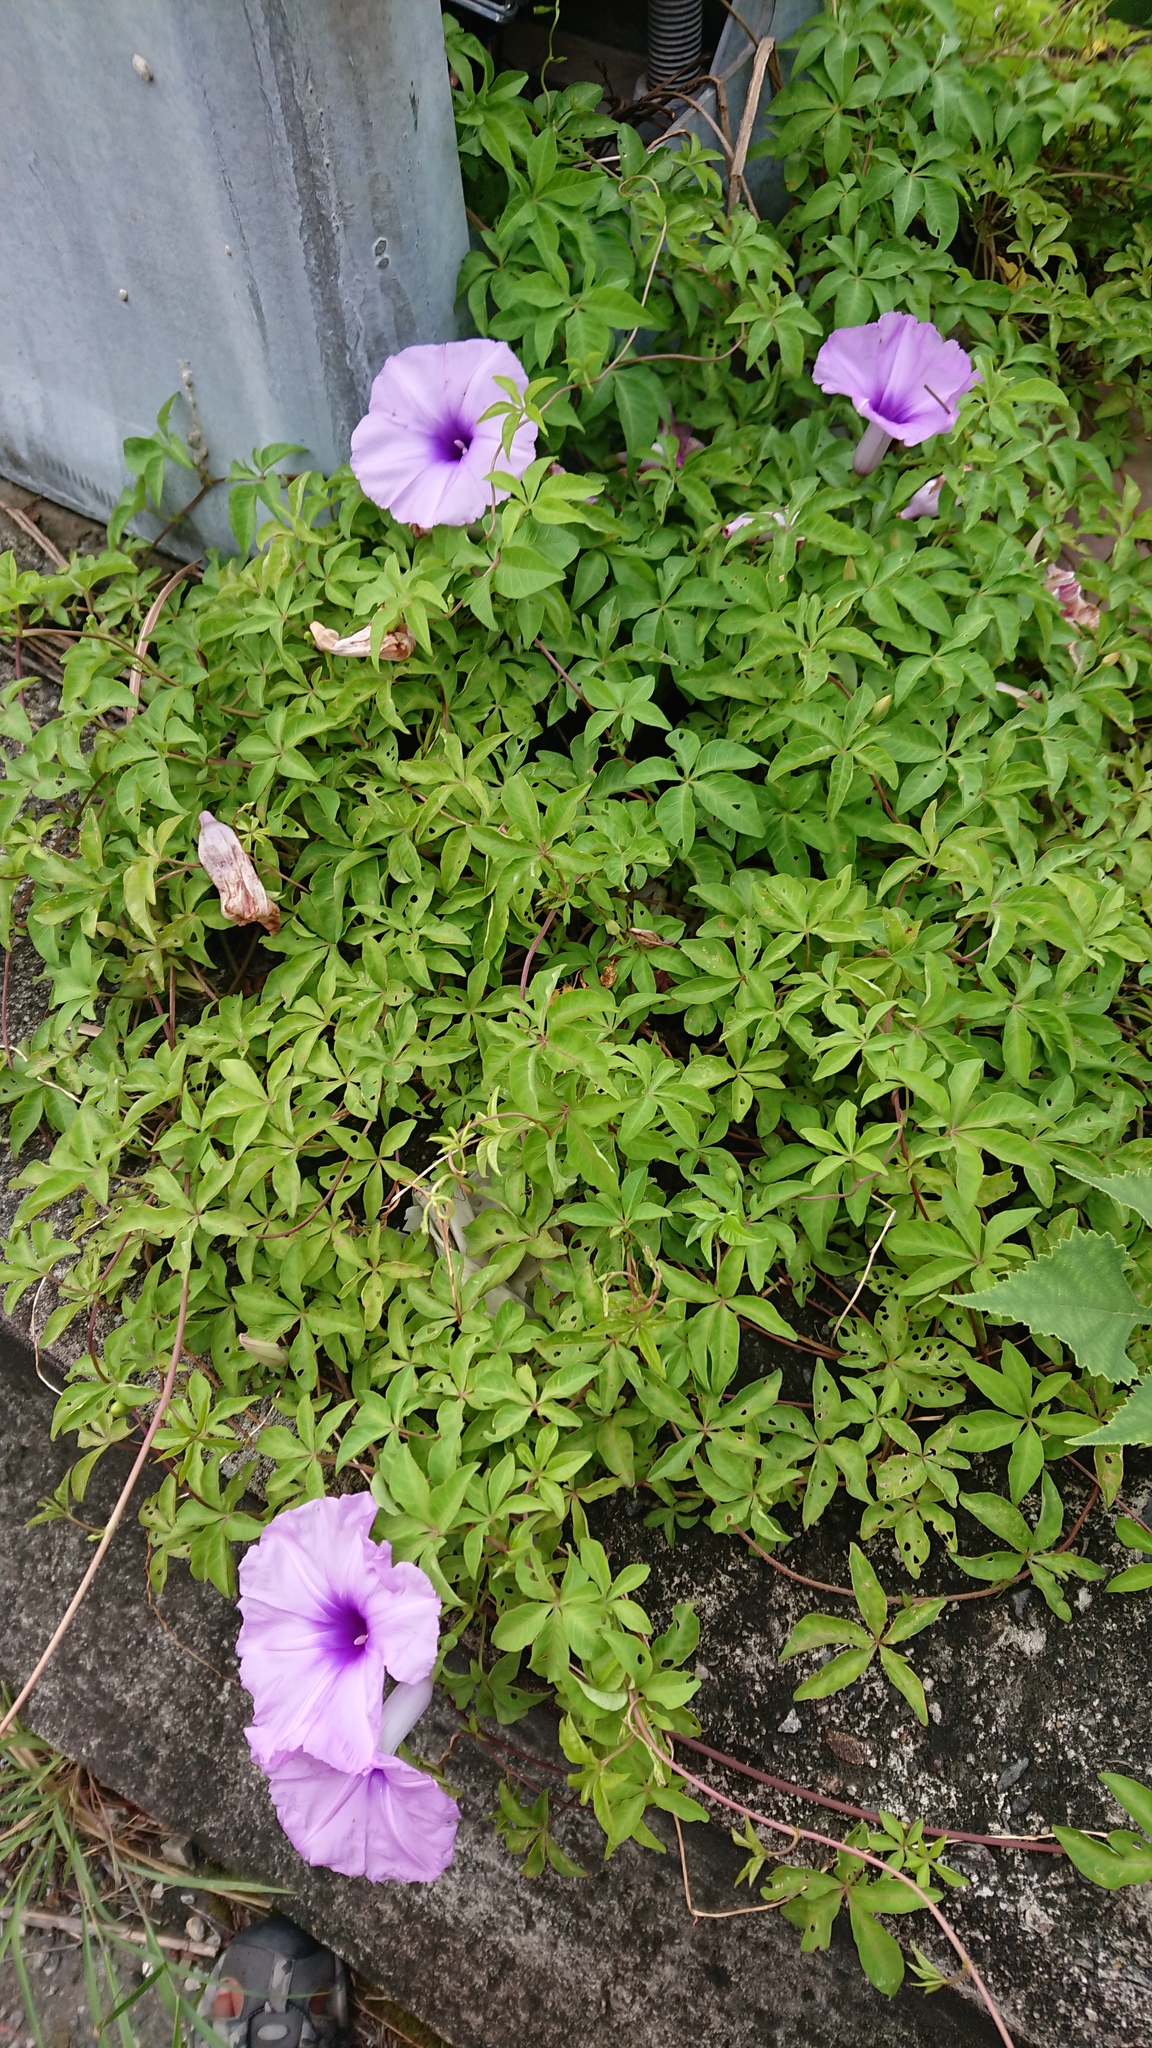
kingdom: Plantae
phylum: Tracheophyta
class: Magnoliopsida
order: Solanales
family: Convolvulaceae
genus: Ipomoea
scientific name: Ipomoea cairica
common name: Mile a minute vine
